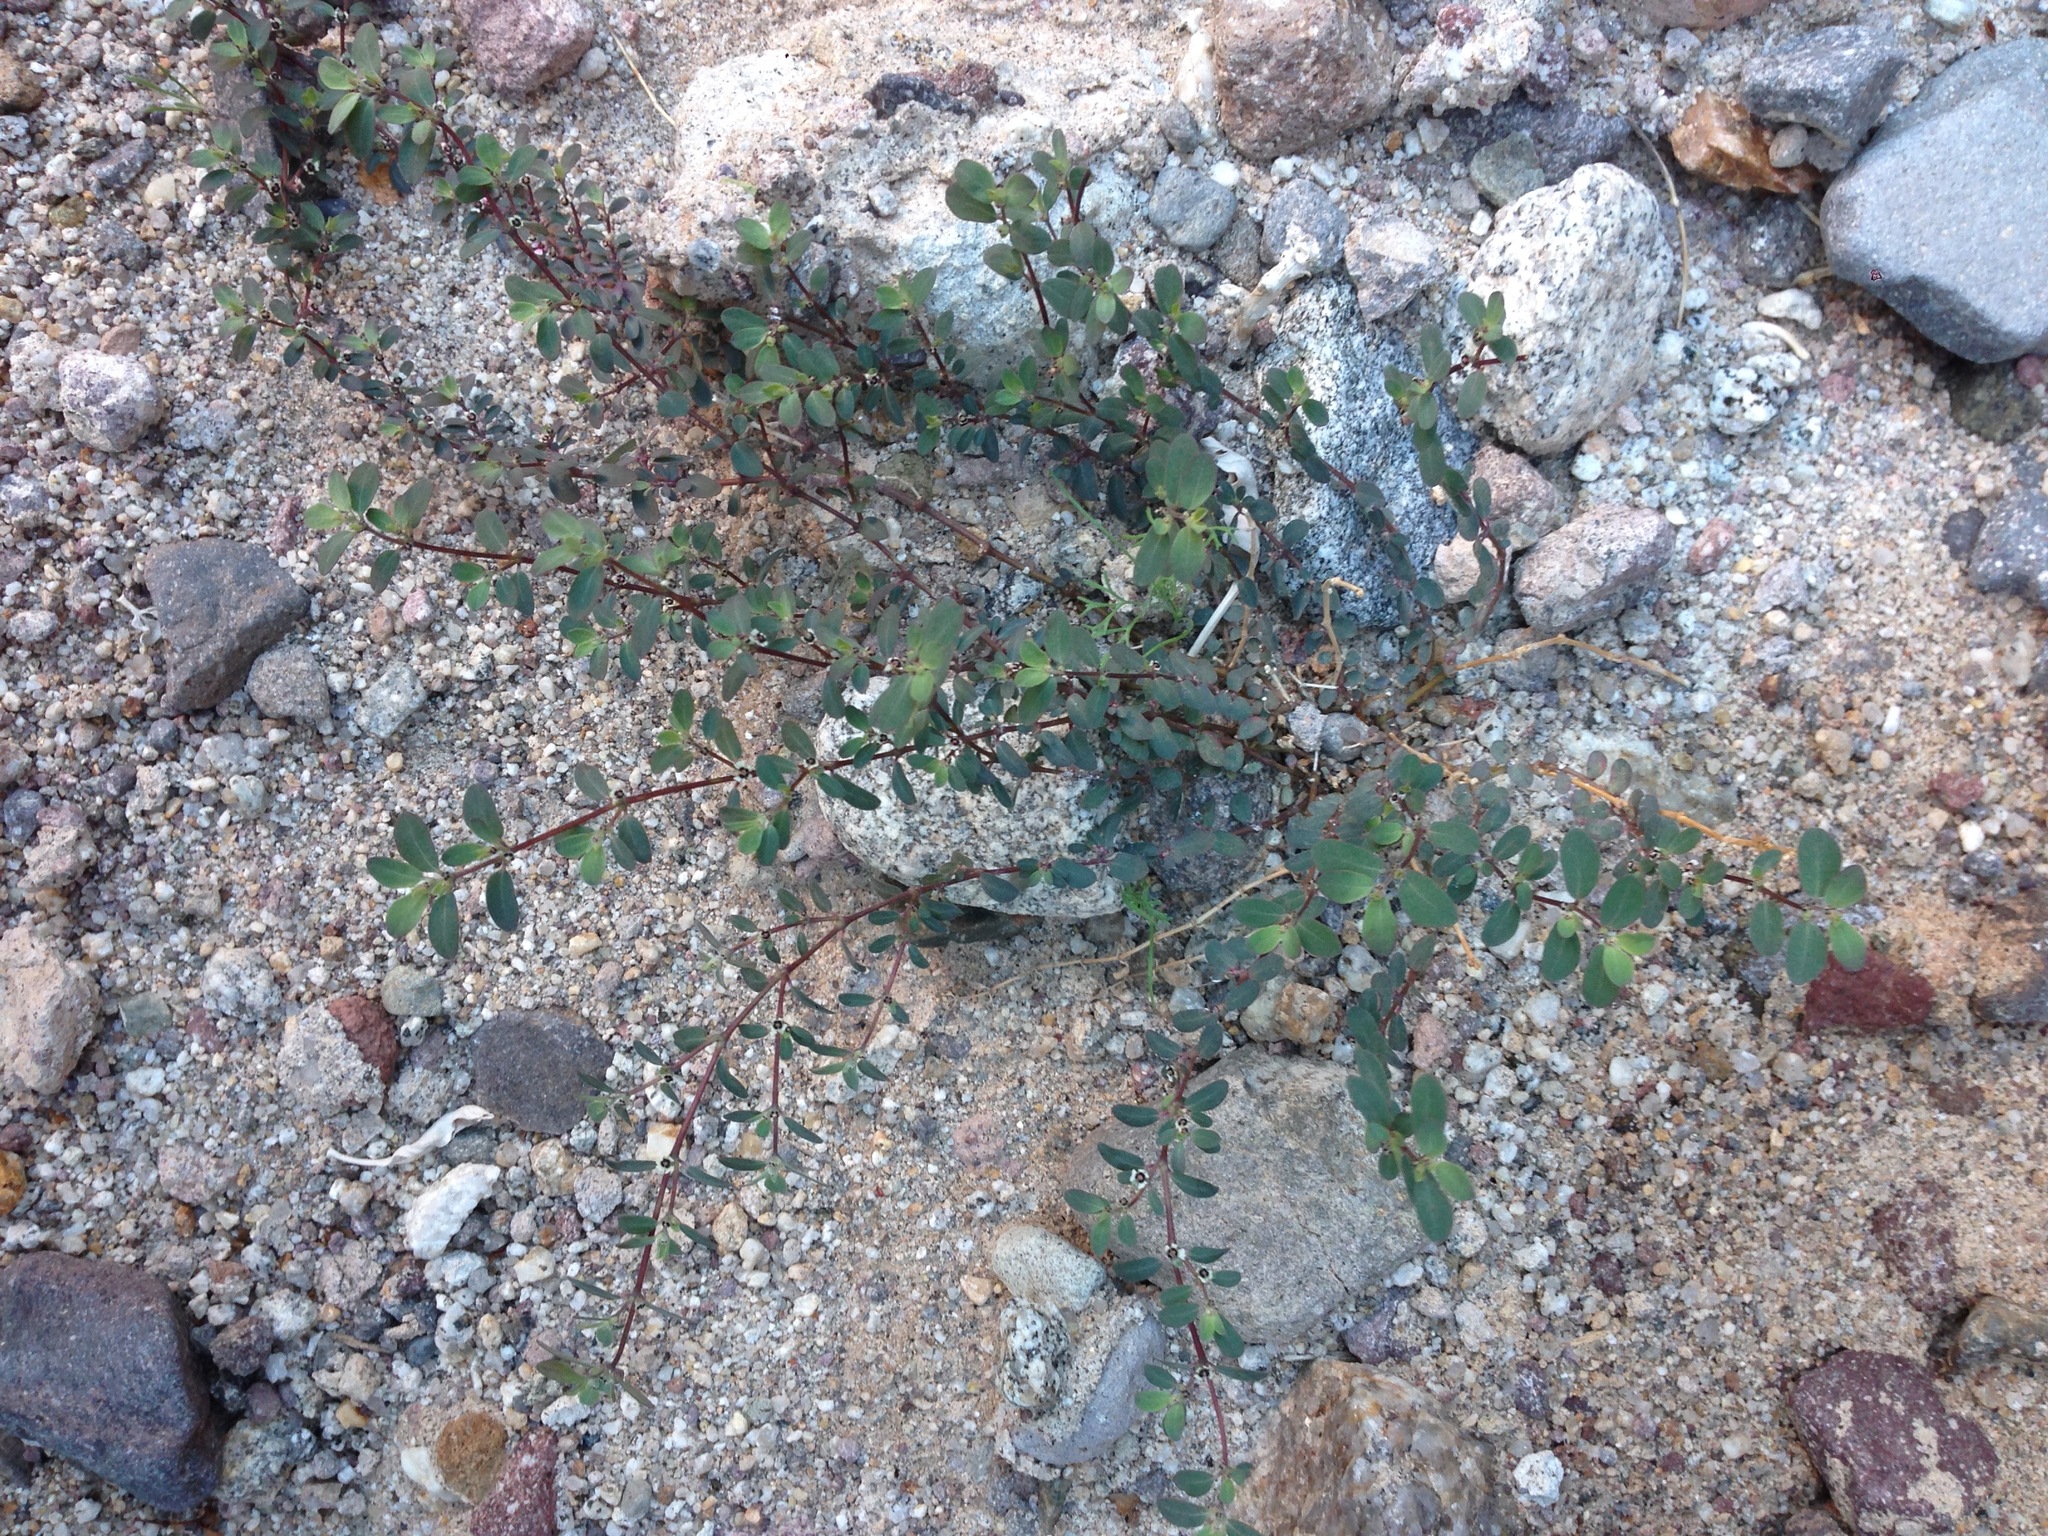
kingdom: Plantae
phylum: Tracheophyta
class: Magnoliopsida
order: Malpighiales
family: Euphorbiaceae
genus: Euphorbia
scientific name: Euphorbia pediculifera
